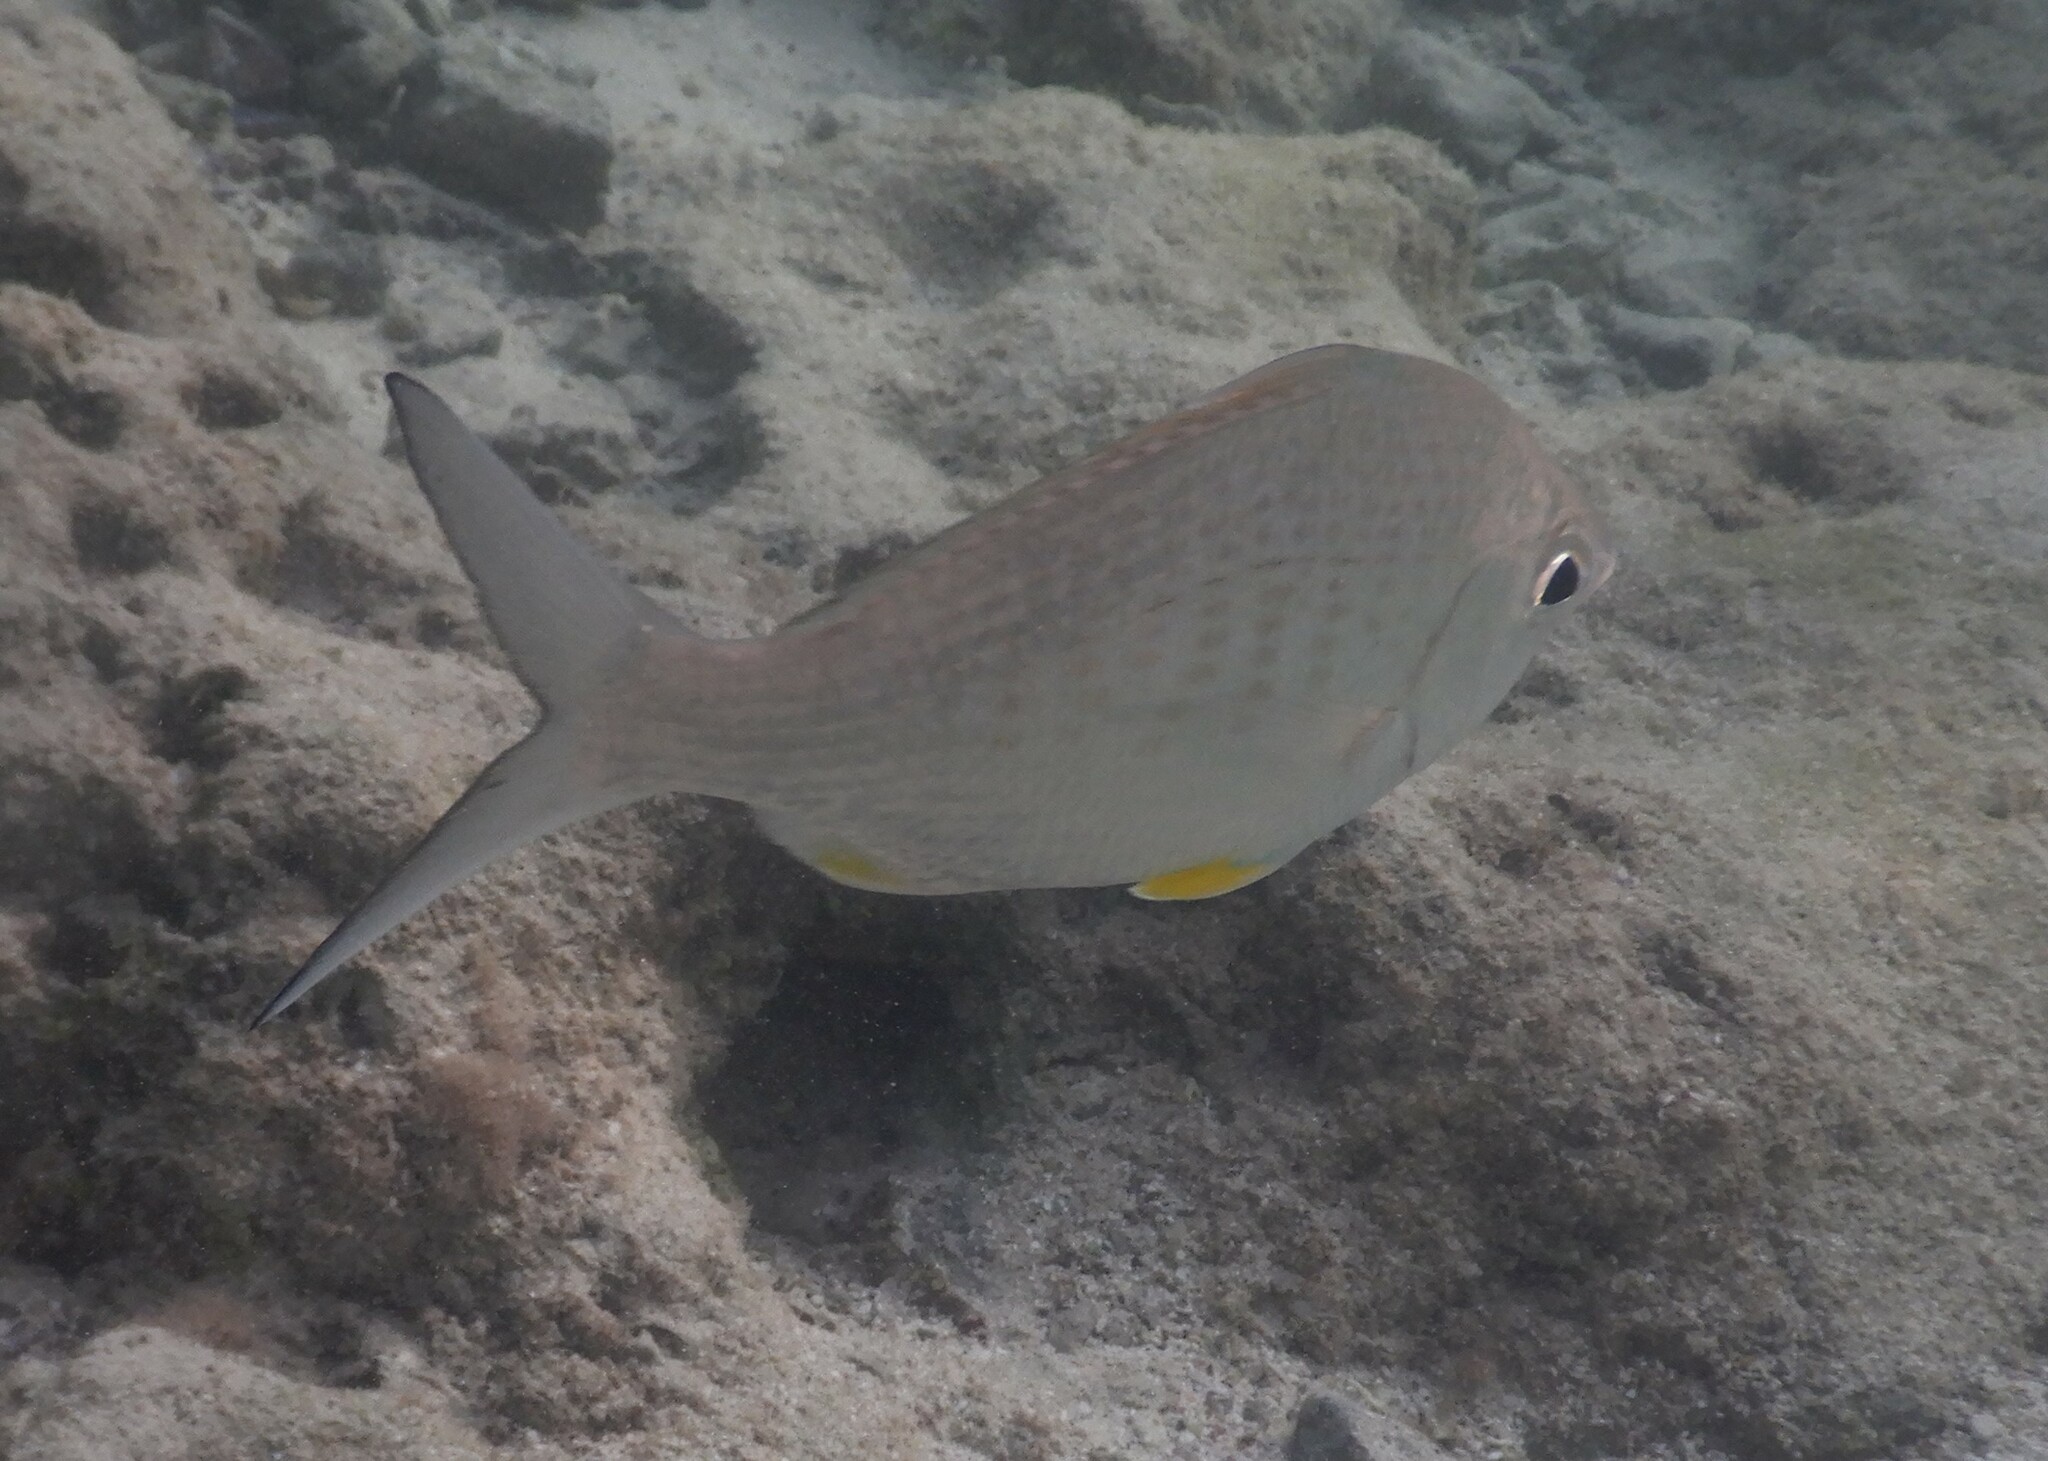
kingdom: Animalia
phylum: Chordata
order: Perciformes
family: Gerreidae
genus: Gerres
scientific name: Gerres longirostris
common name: Strongspine silver-biddy
